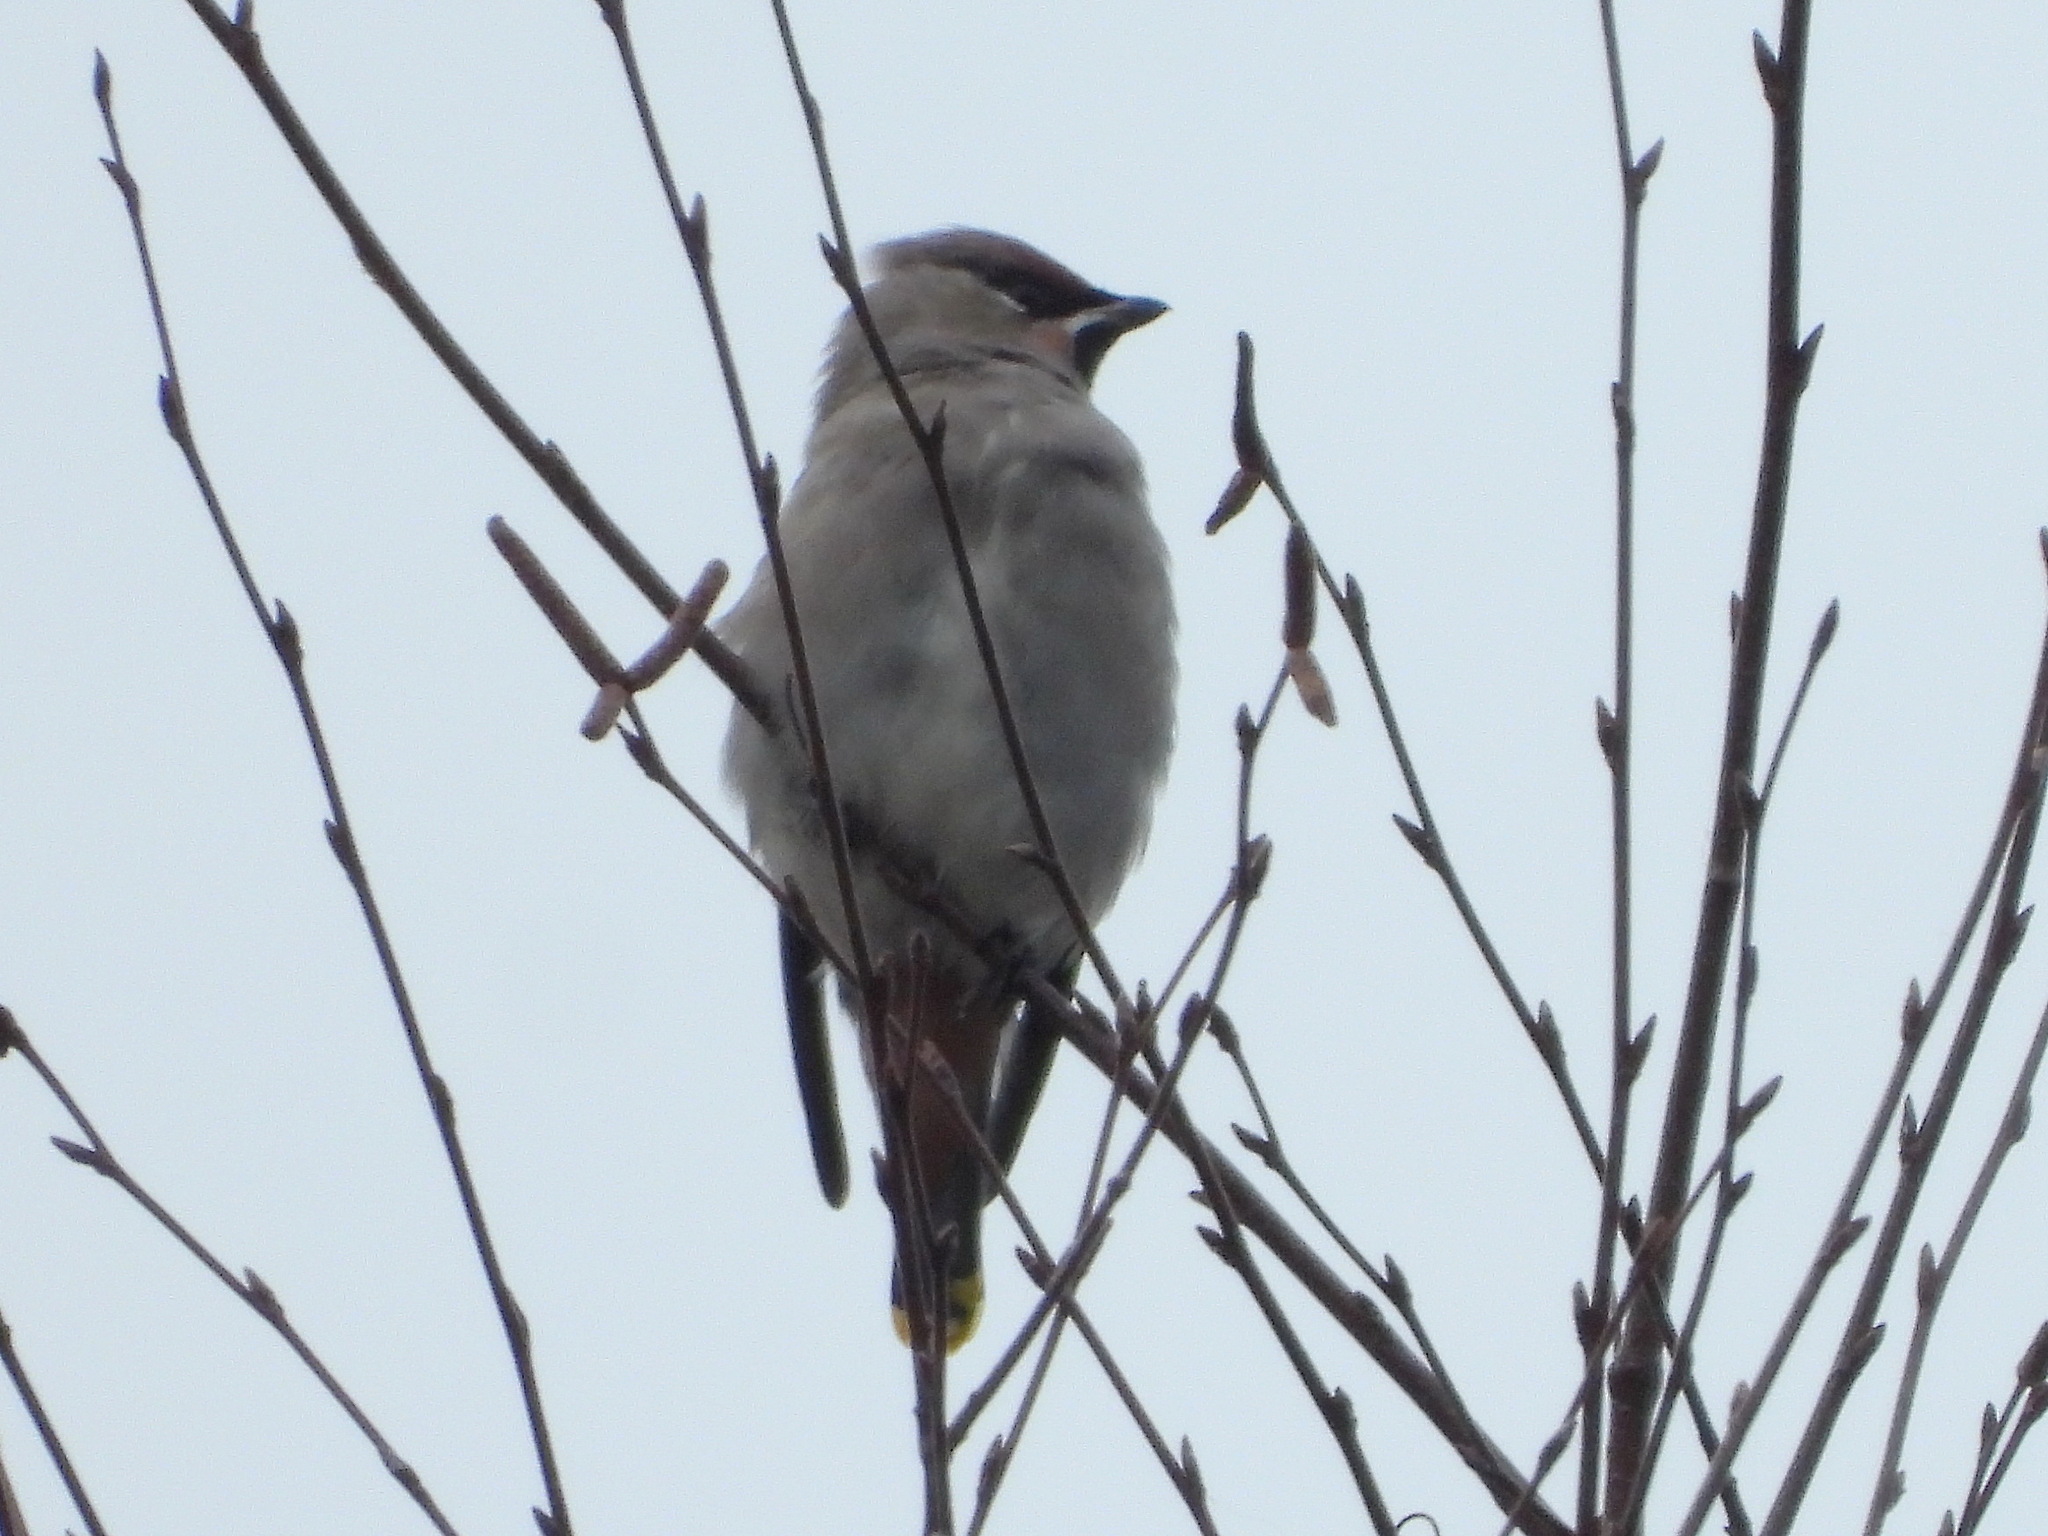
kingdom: Animalia
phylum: Chordata
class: Aves
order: Passeriformes
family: Bombycillidae
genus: Bombycilla
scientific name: Bombycilla garrulus
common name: Bohemian waxwing
